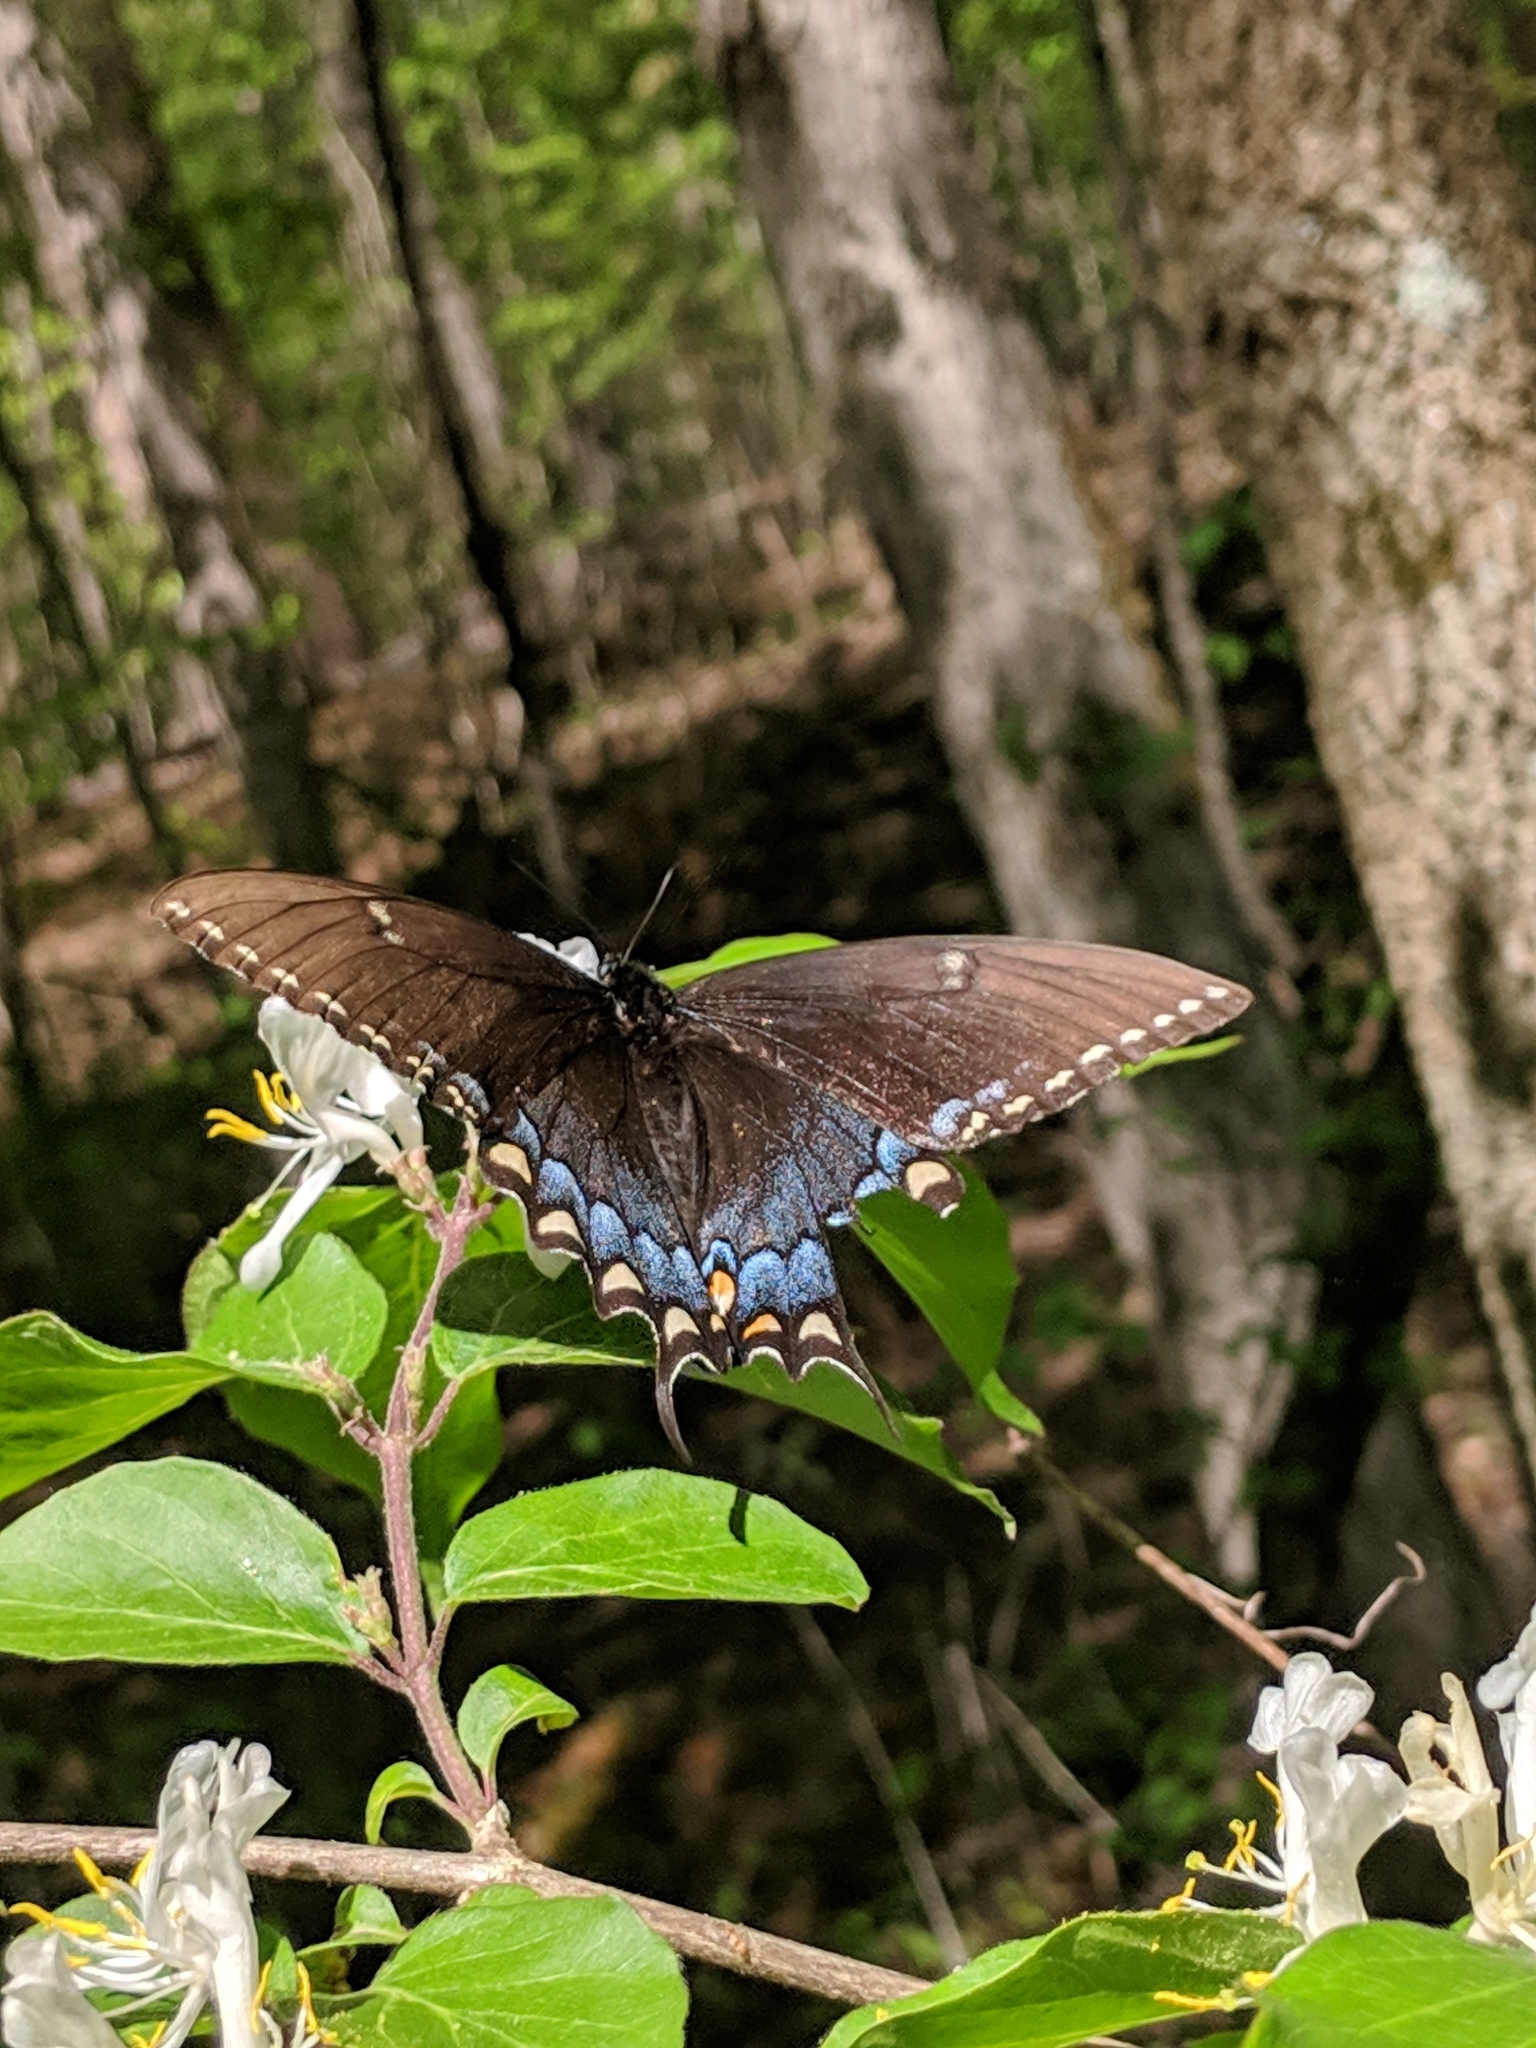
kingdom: Animalia
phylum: Arthropoda
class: Insecta
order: Lepidoptera
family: Papilionidae
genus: Papilio
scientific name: Papilio glaucus
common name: Tiger swallowtail
